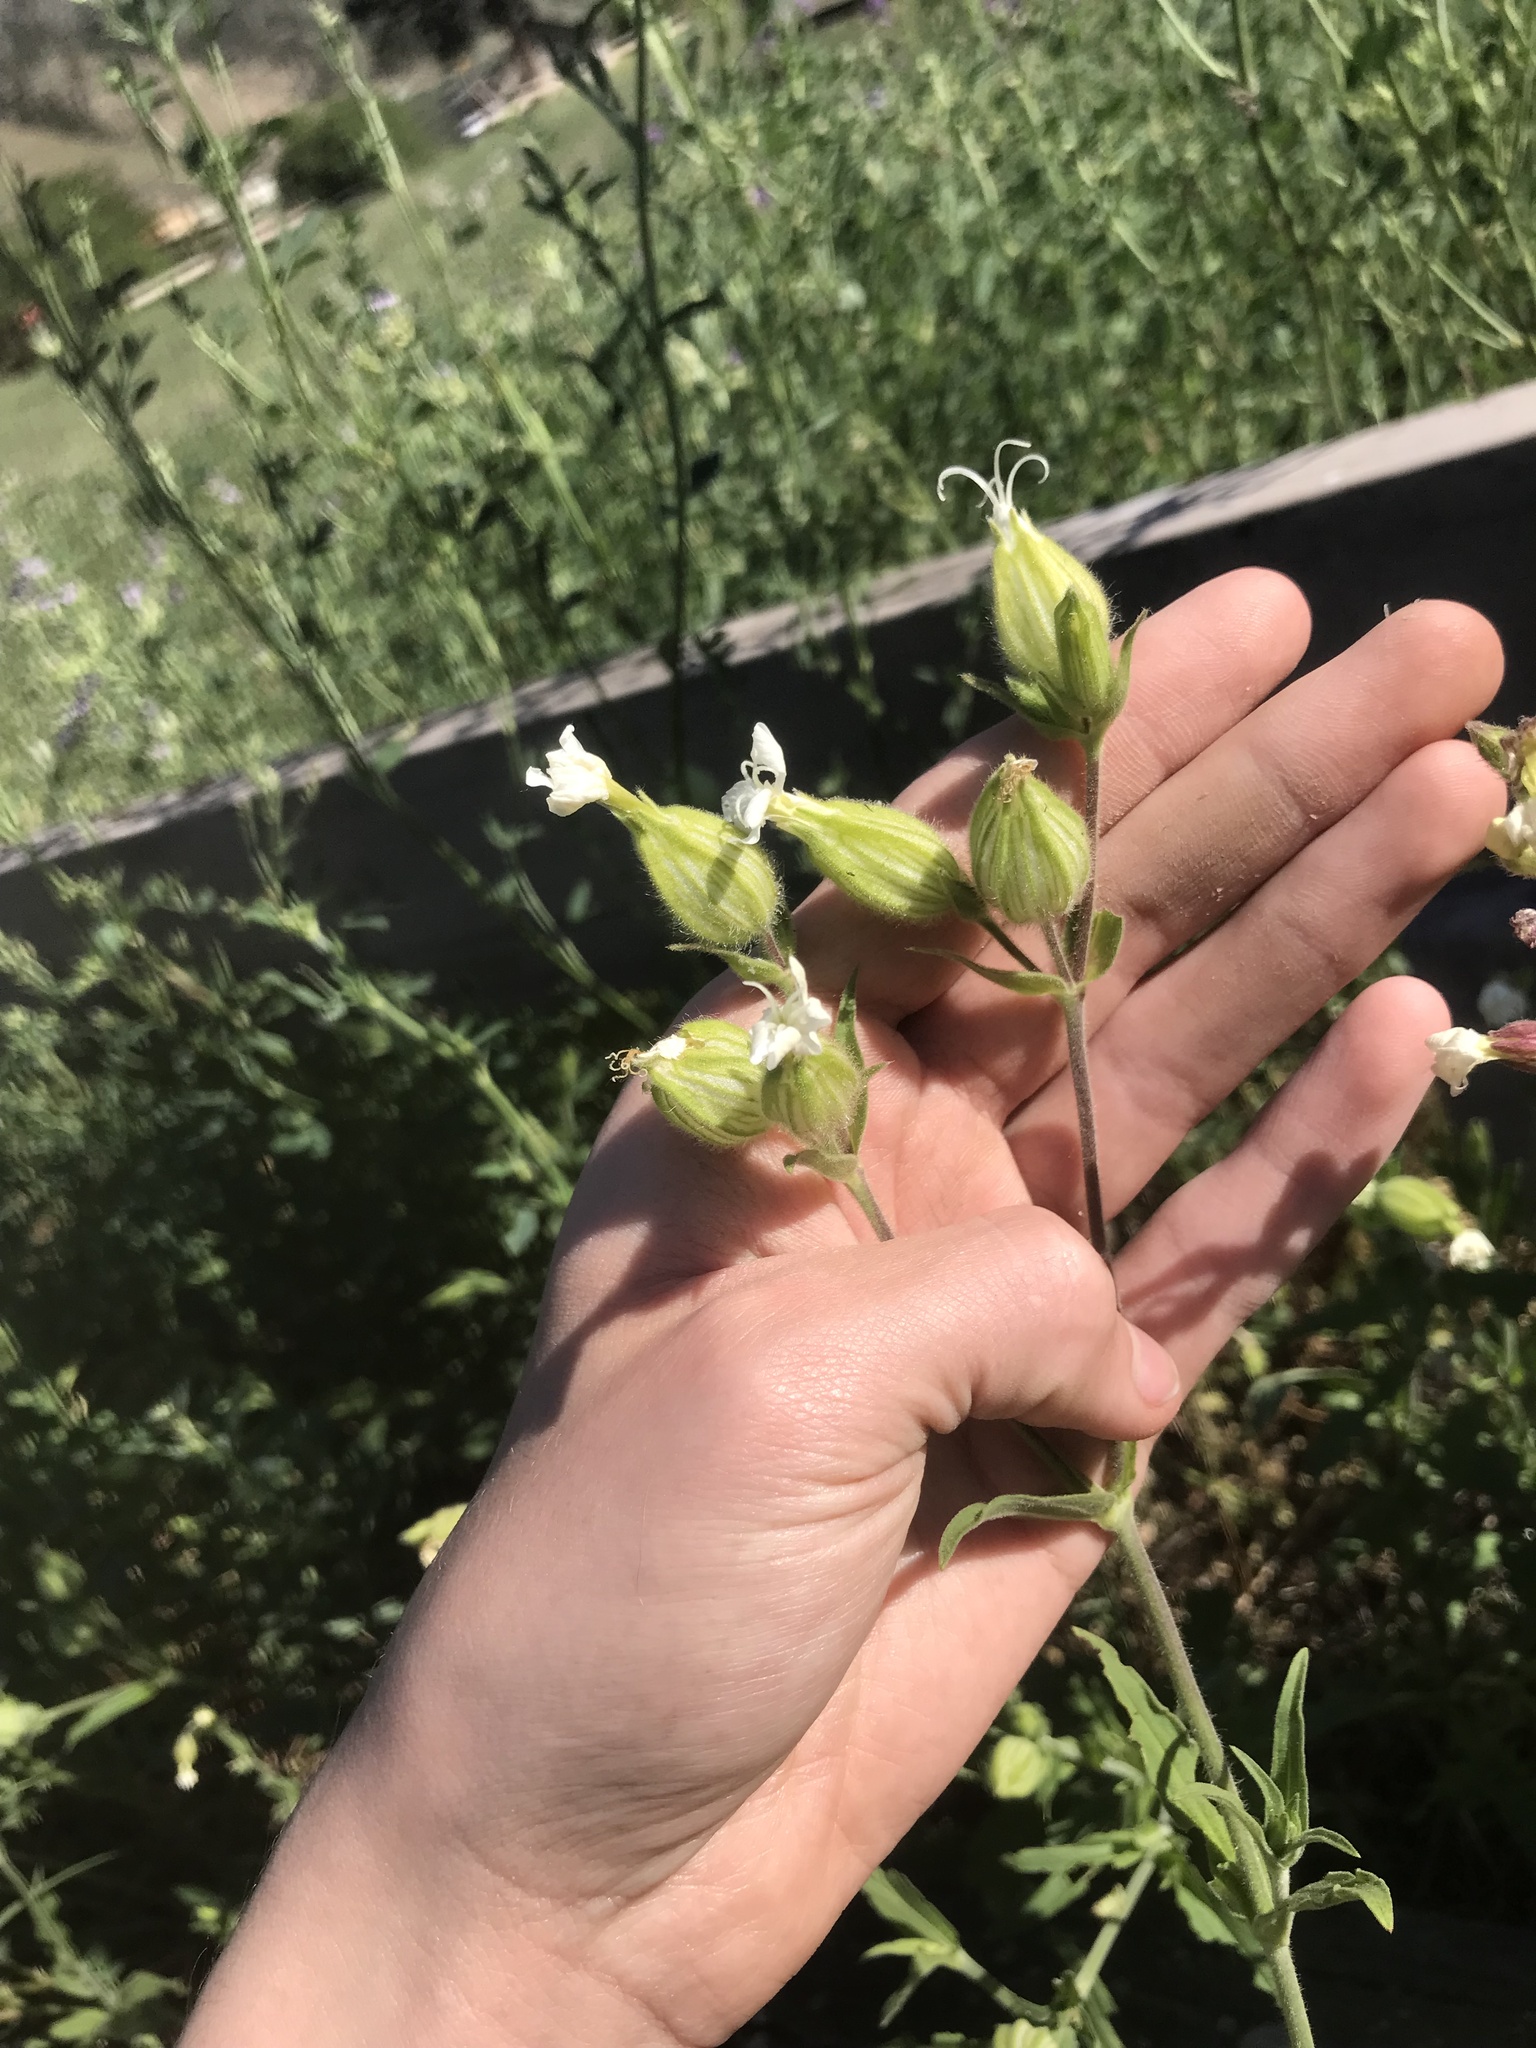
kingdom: Plantae
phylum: Tracheophyta
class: Magnoliopsida
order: Caryophyllales
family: Caryophyllaceae
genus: Silene
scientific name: Silene latifolia
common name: White campion
